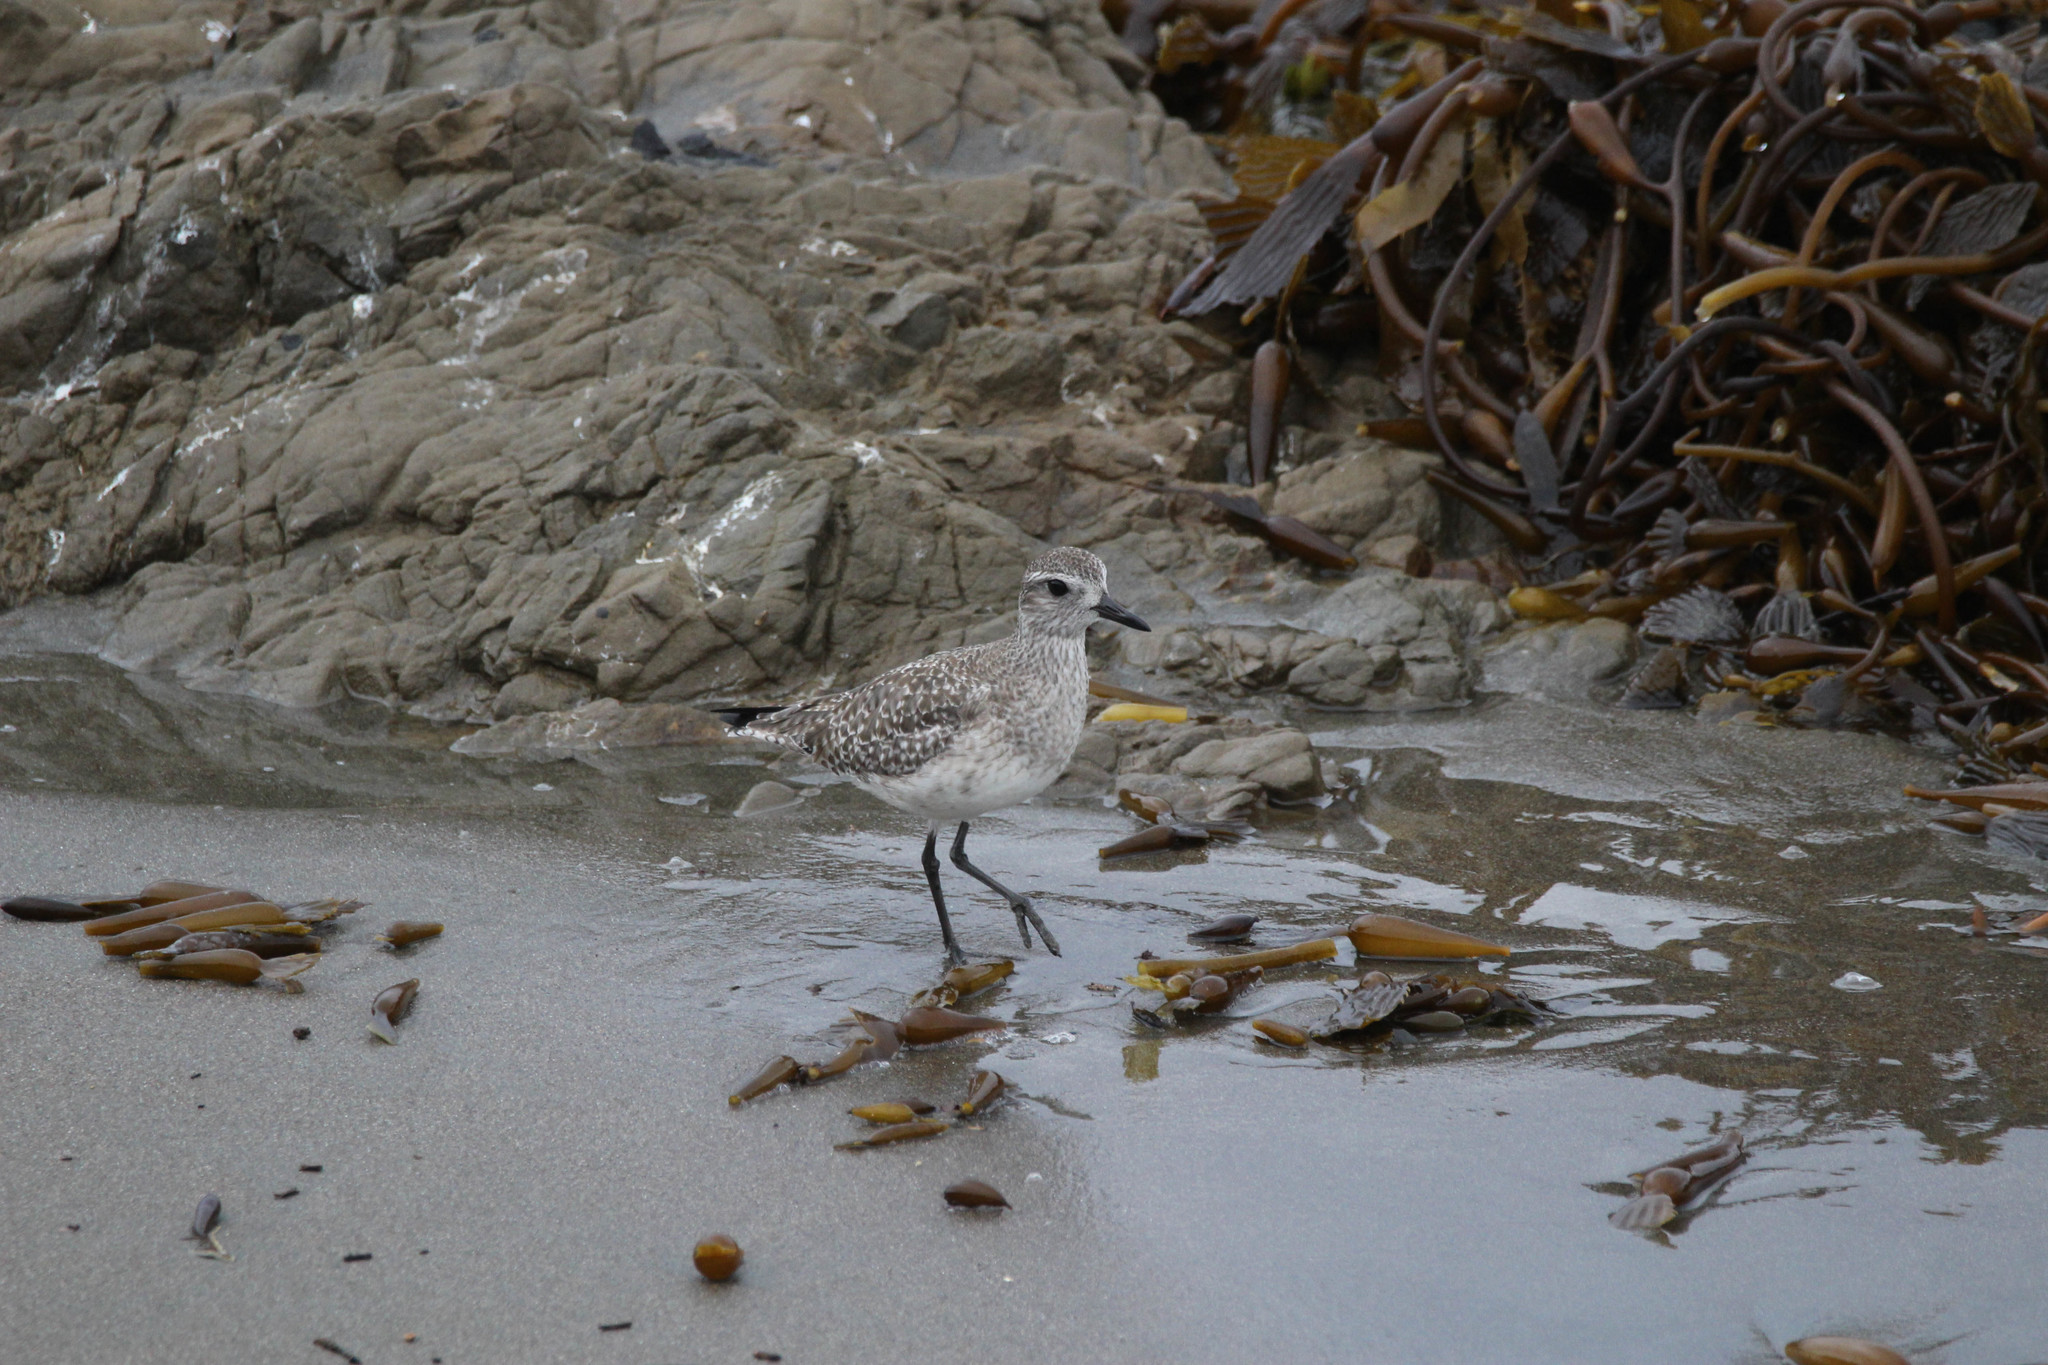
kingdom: Animalia
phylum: Chordata
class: Aves
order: Charadriiformes
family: Charadriidae
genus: Pluvialis
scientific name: Pluvialis squatarola
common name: Grey plover
